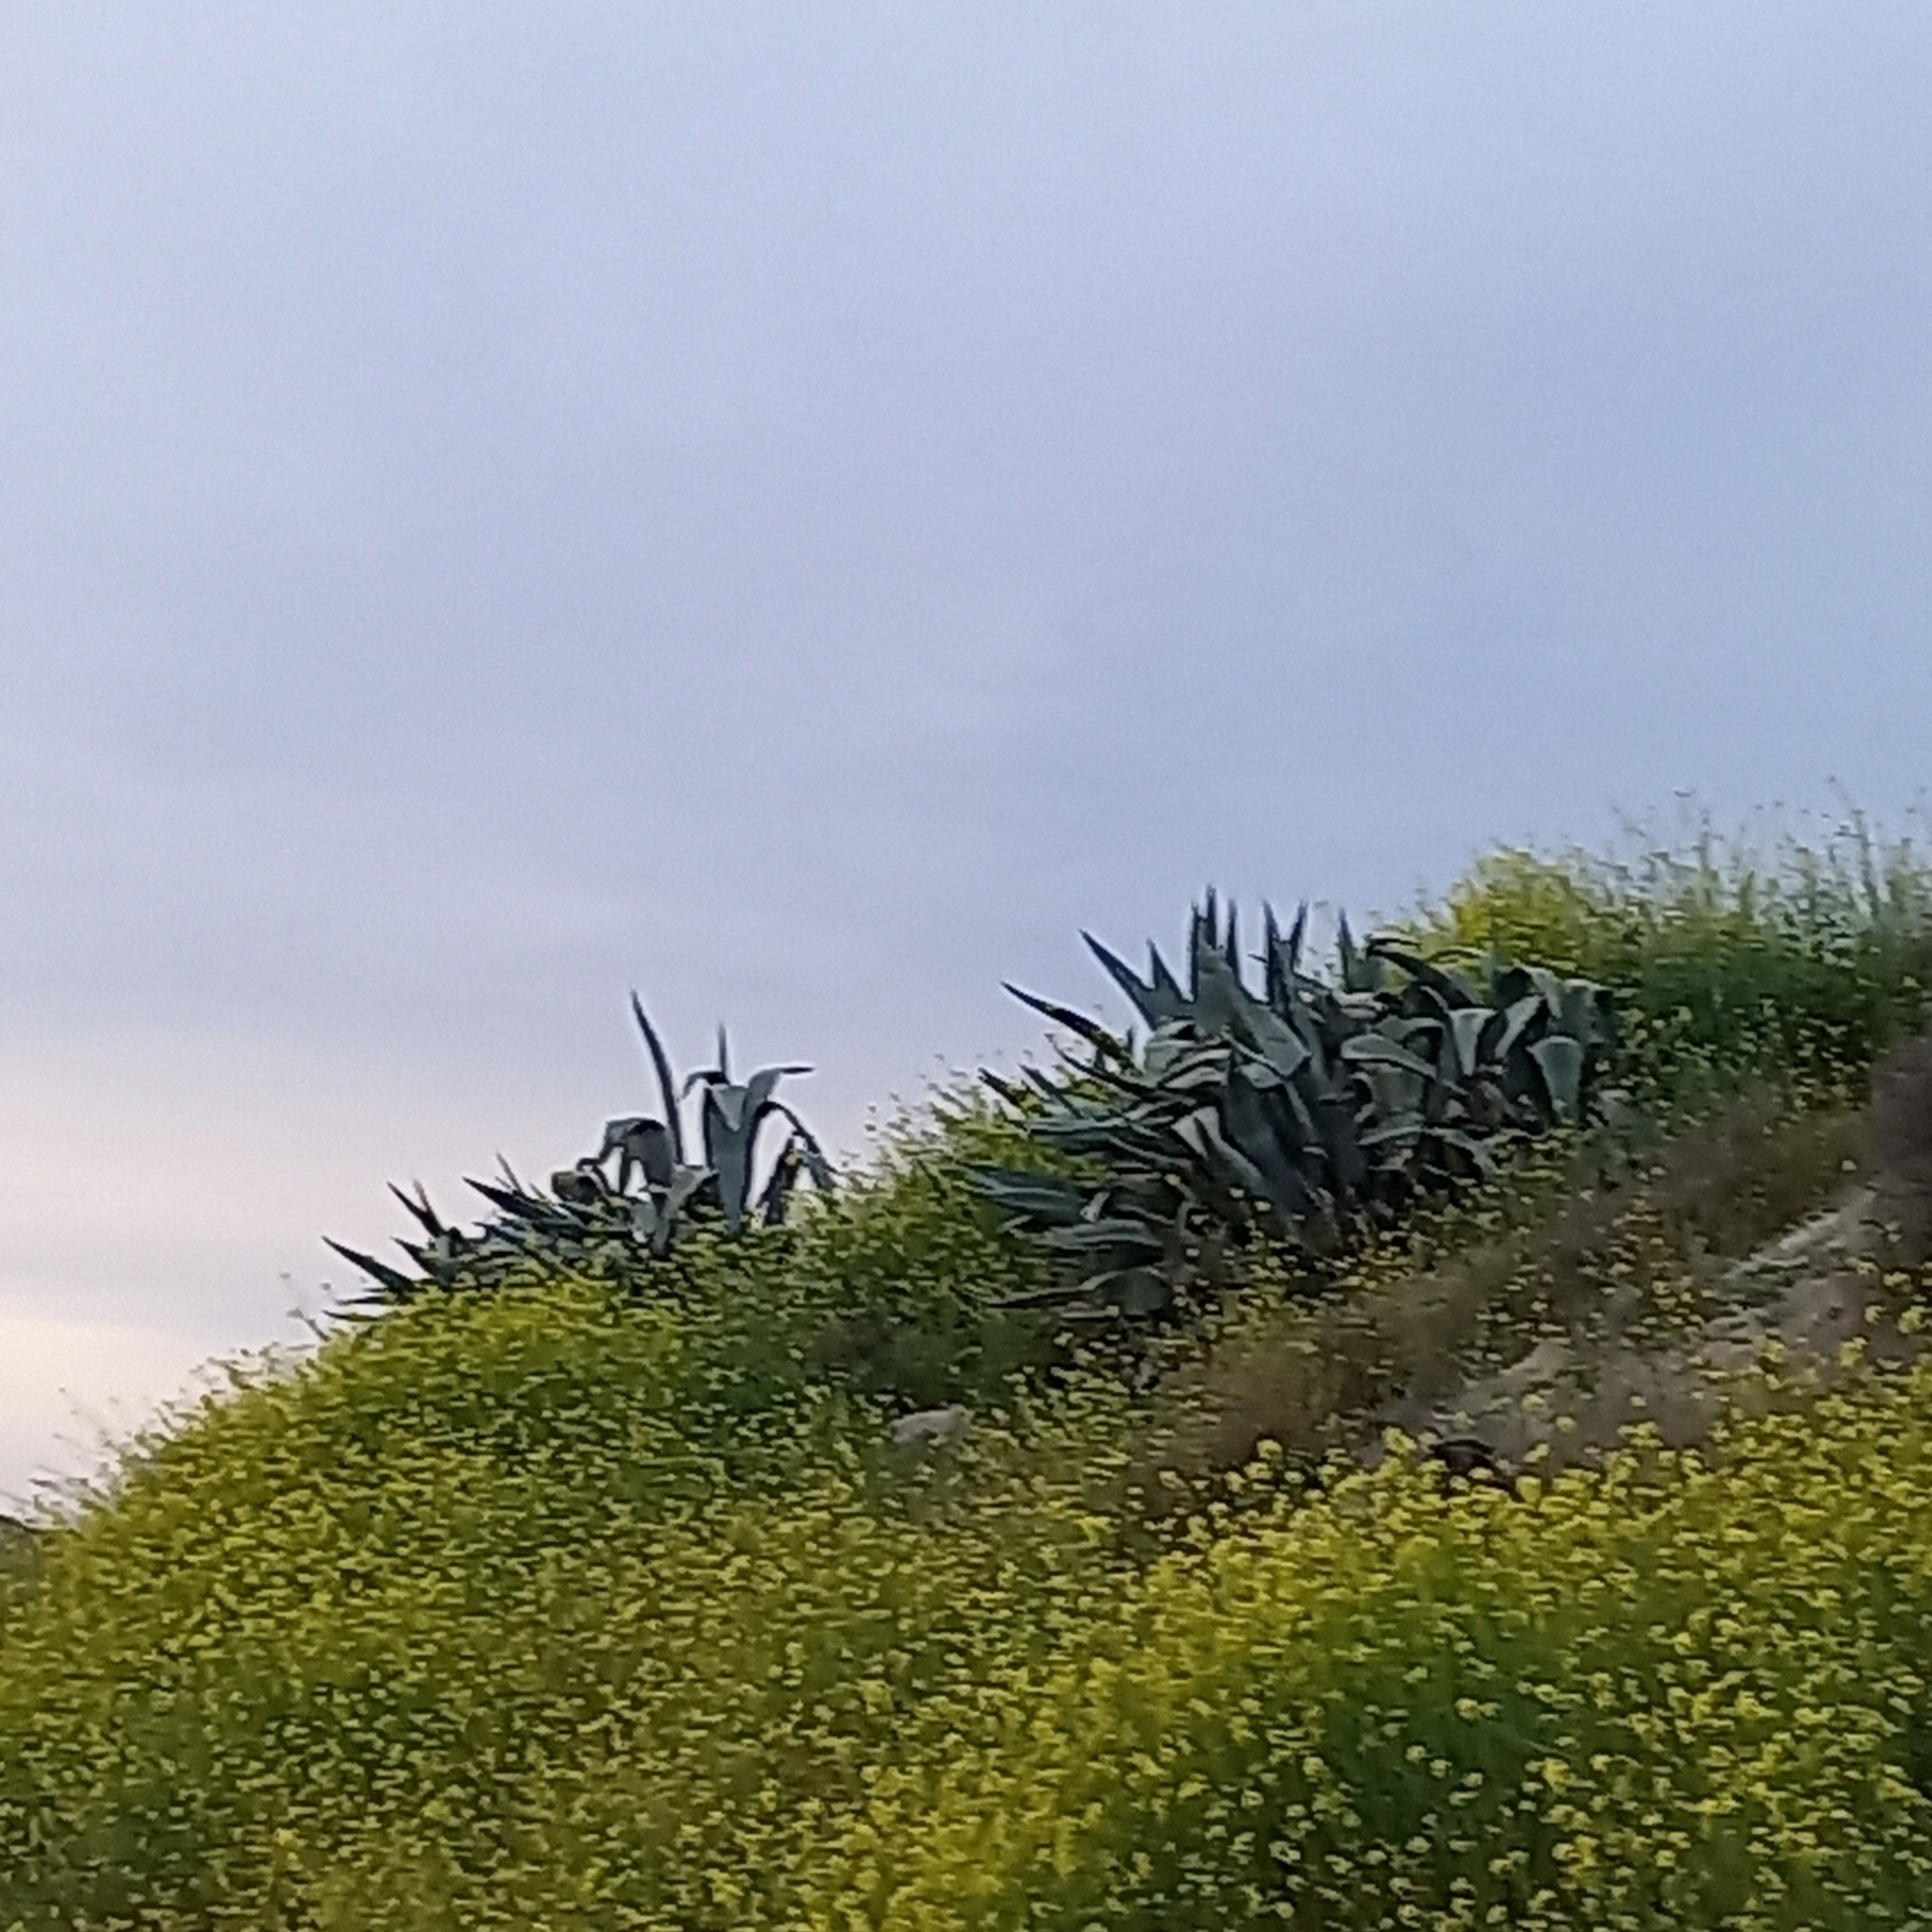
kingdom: Plantae
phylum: Tracheophyta
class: Liliopsida
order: Asparagales
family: Asparagaceae
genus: Agave
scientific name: Agave americana
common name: Centuryplant
